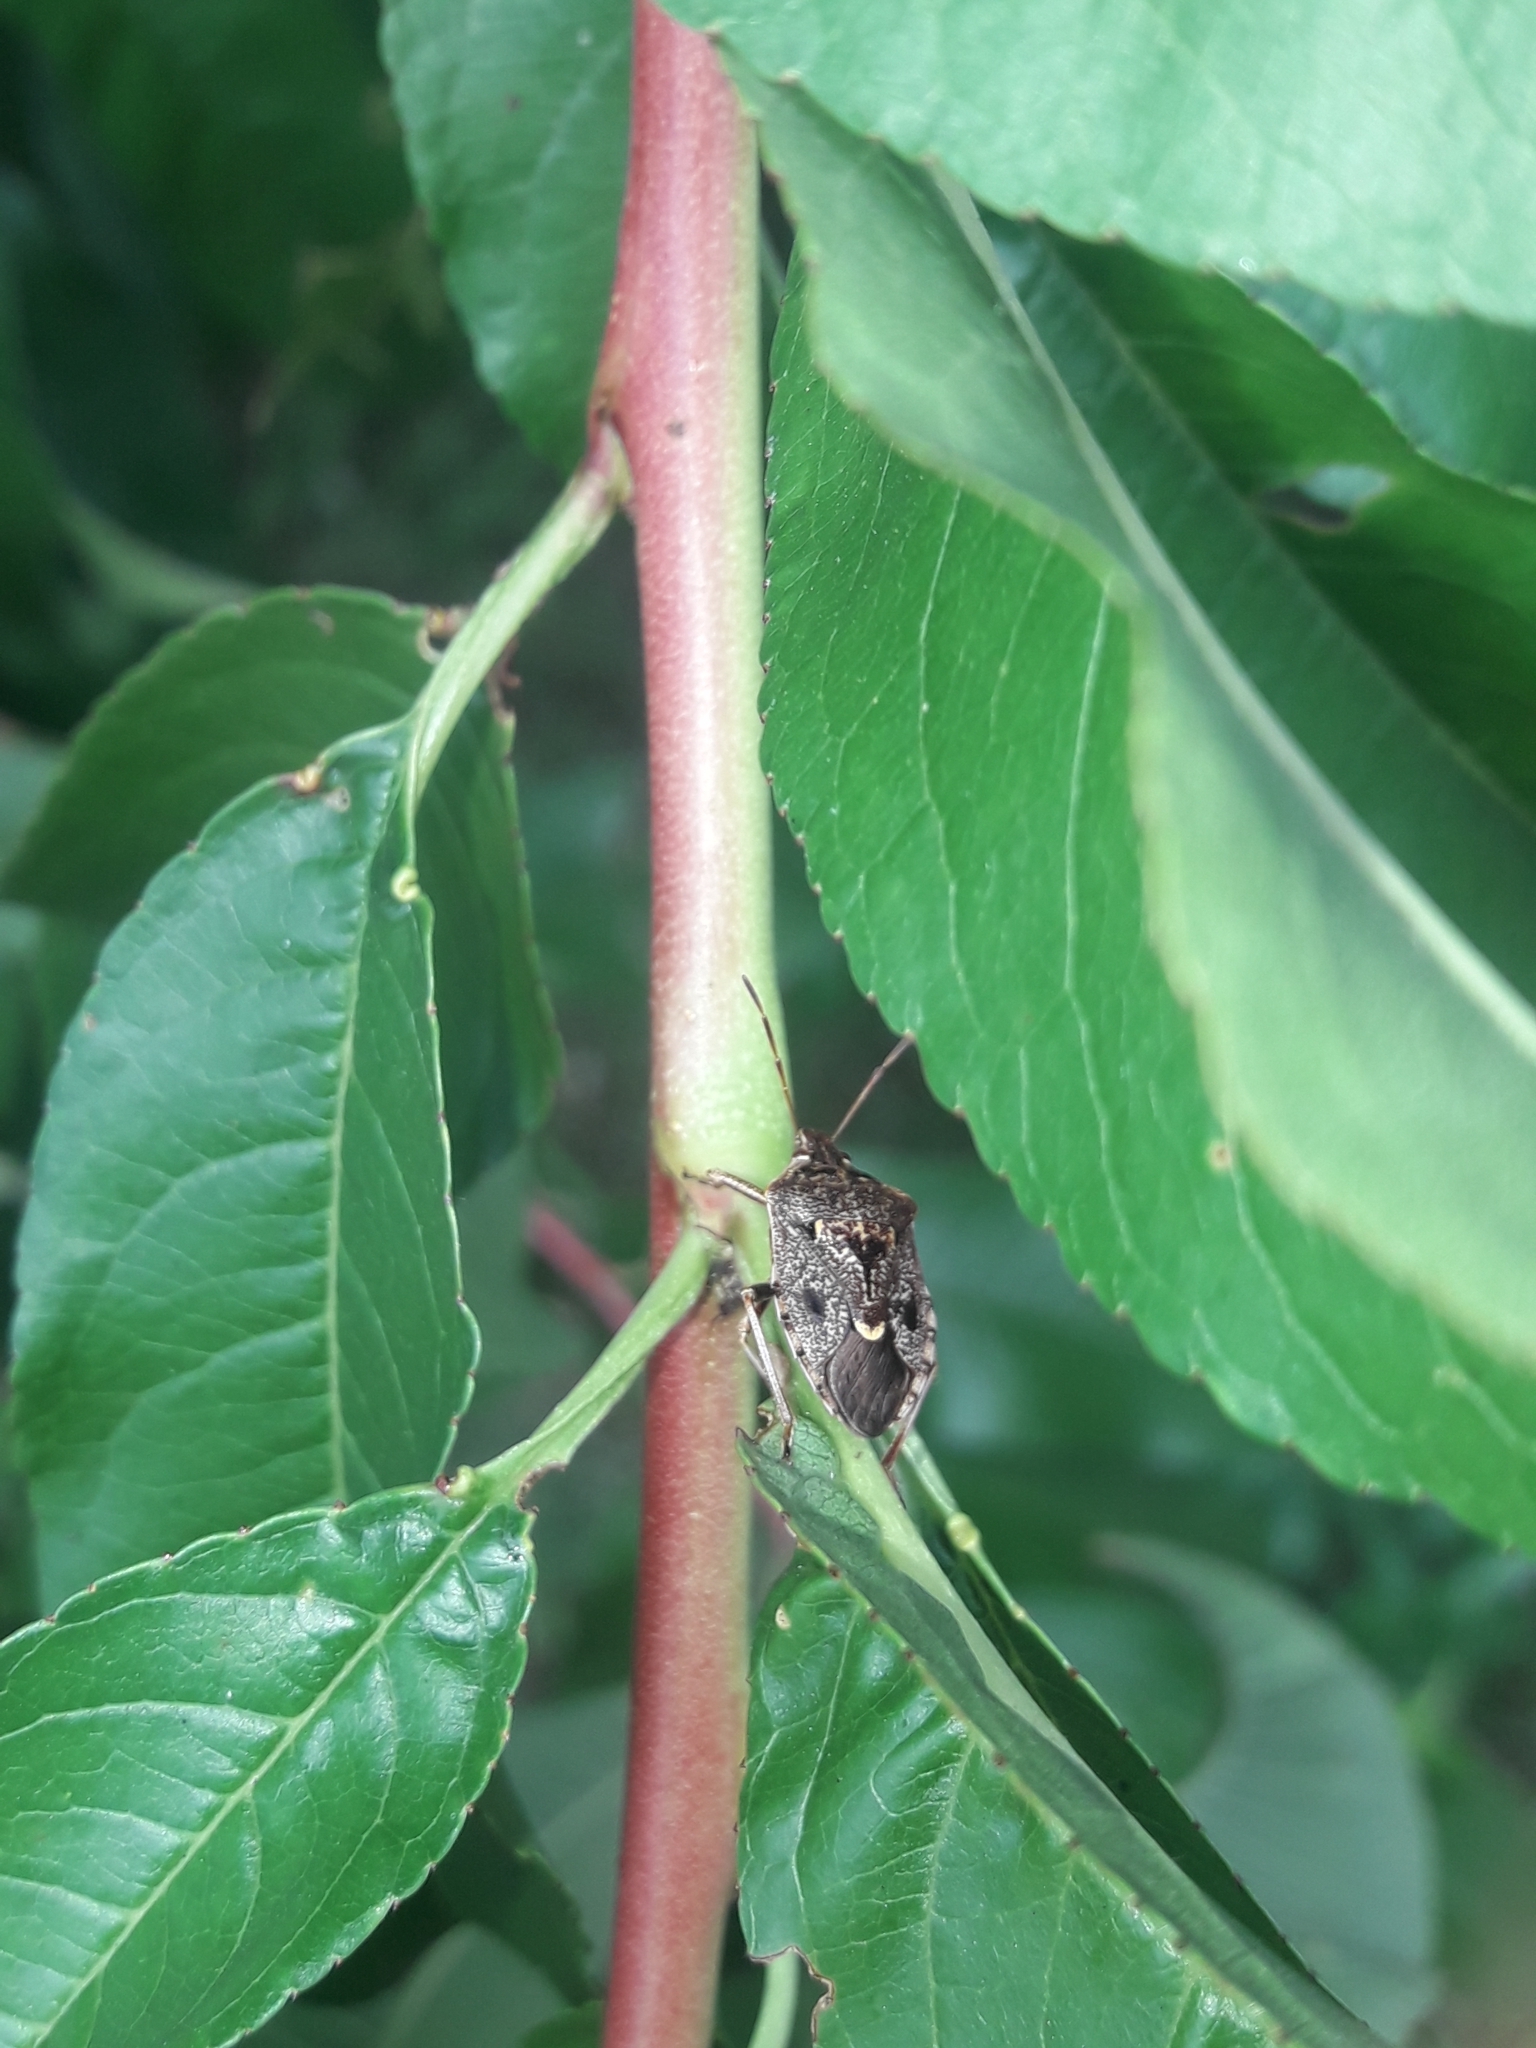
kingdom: Animalia
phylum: Arthropoda
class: Insecta
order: Hemiptera
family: Pentatomidae
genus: Cermatulus
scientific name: Cermatulus nasalis
